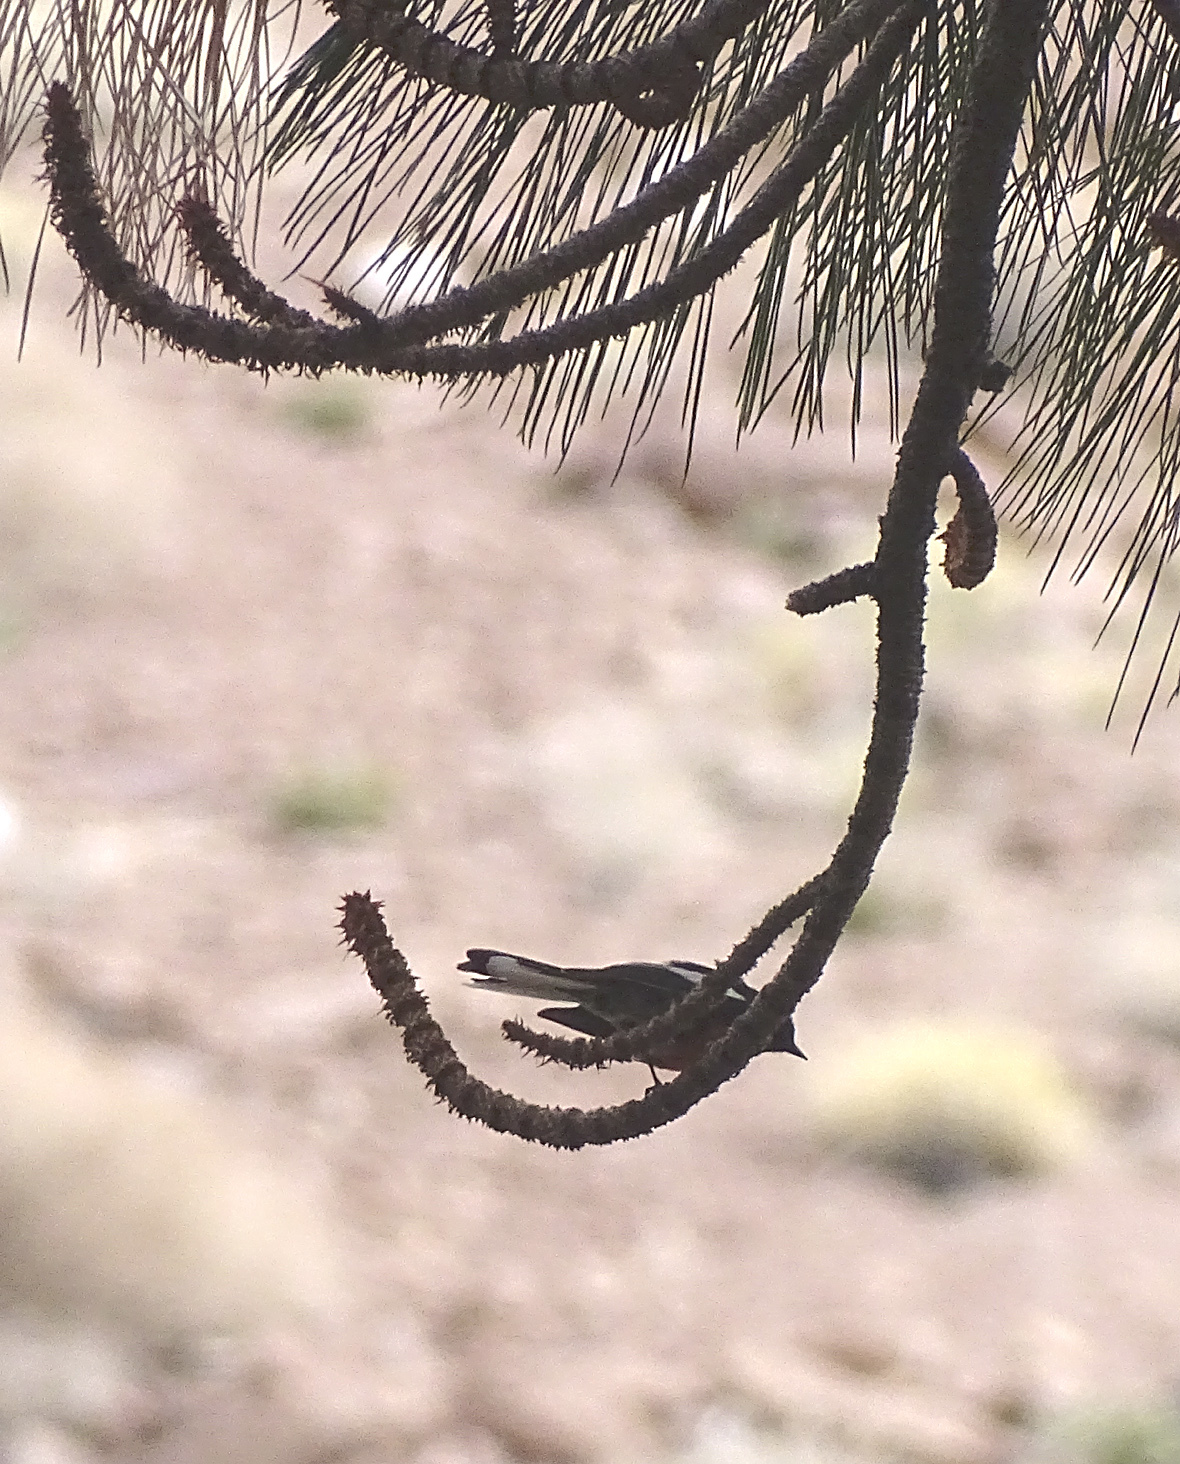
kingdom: Animalia
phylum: Chordata
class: Aves
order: Passeriformes
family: Parulidae
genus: Myioborus
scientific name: Myioborus pictus
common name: Painted whitestart
